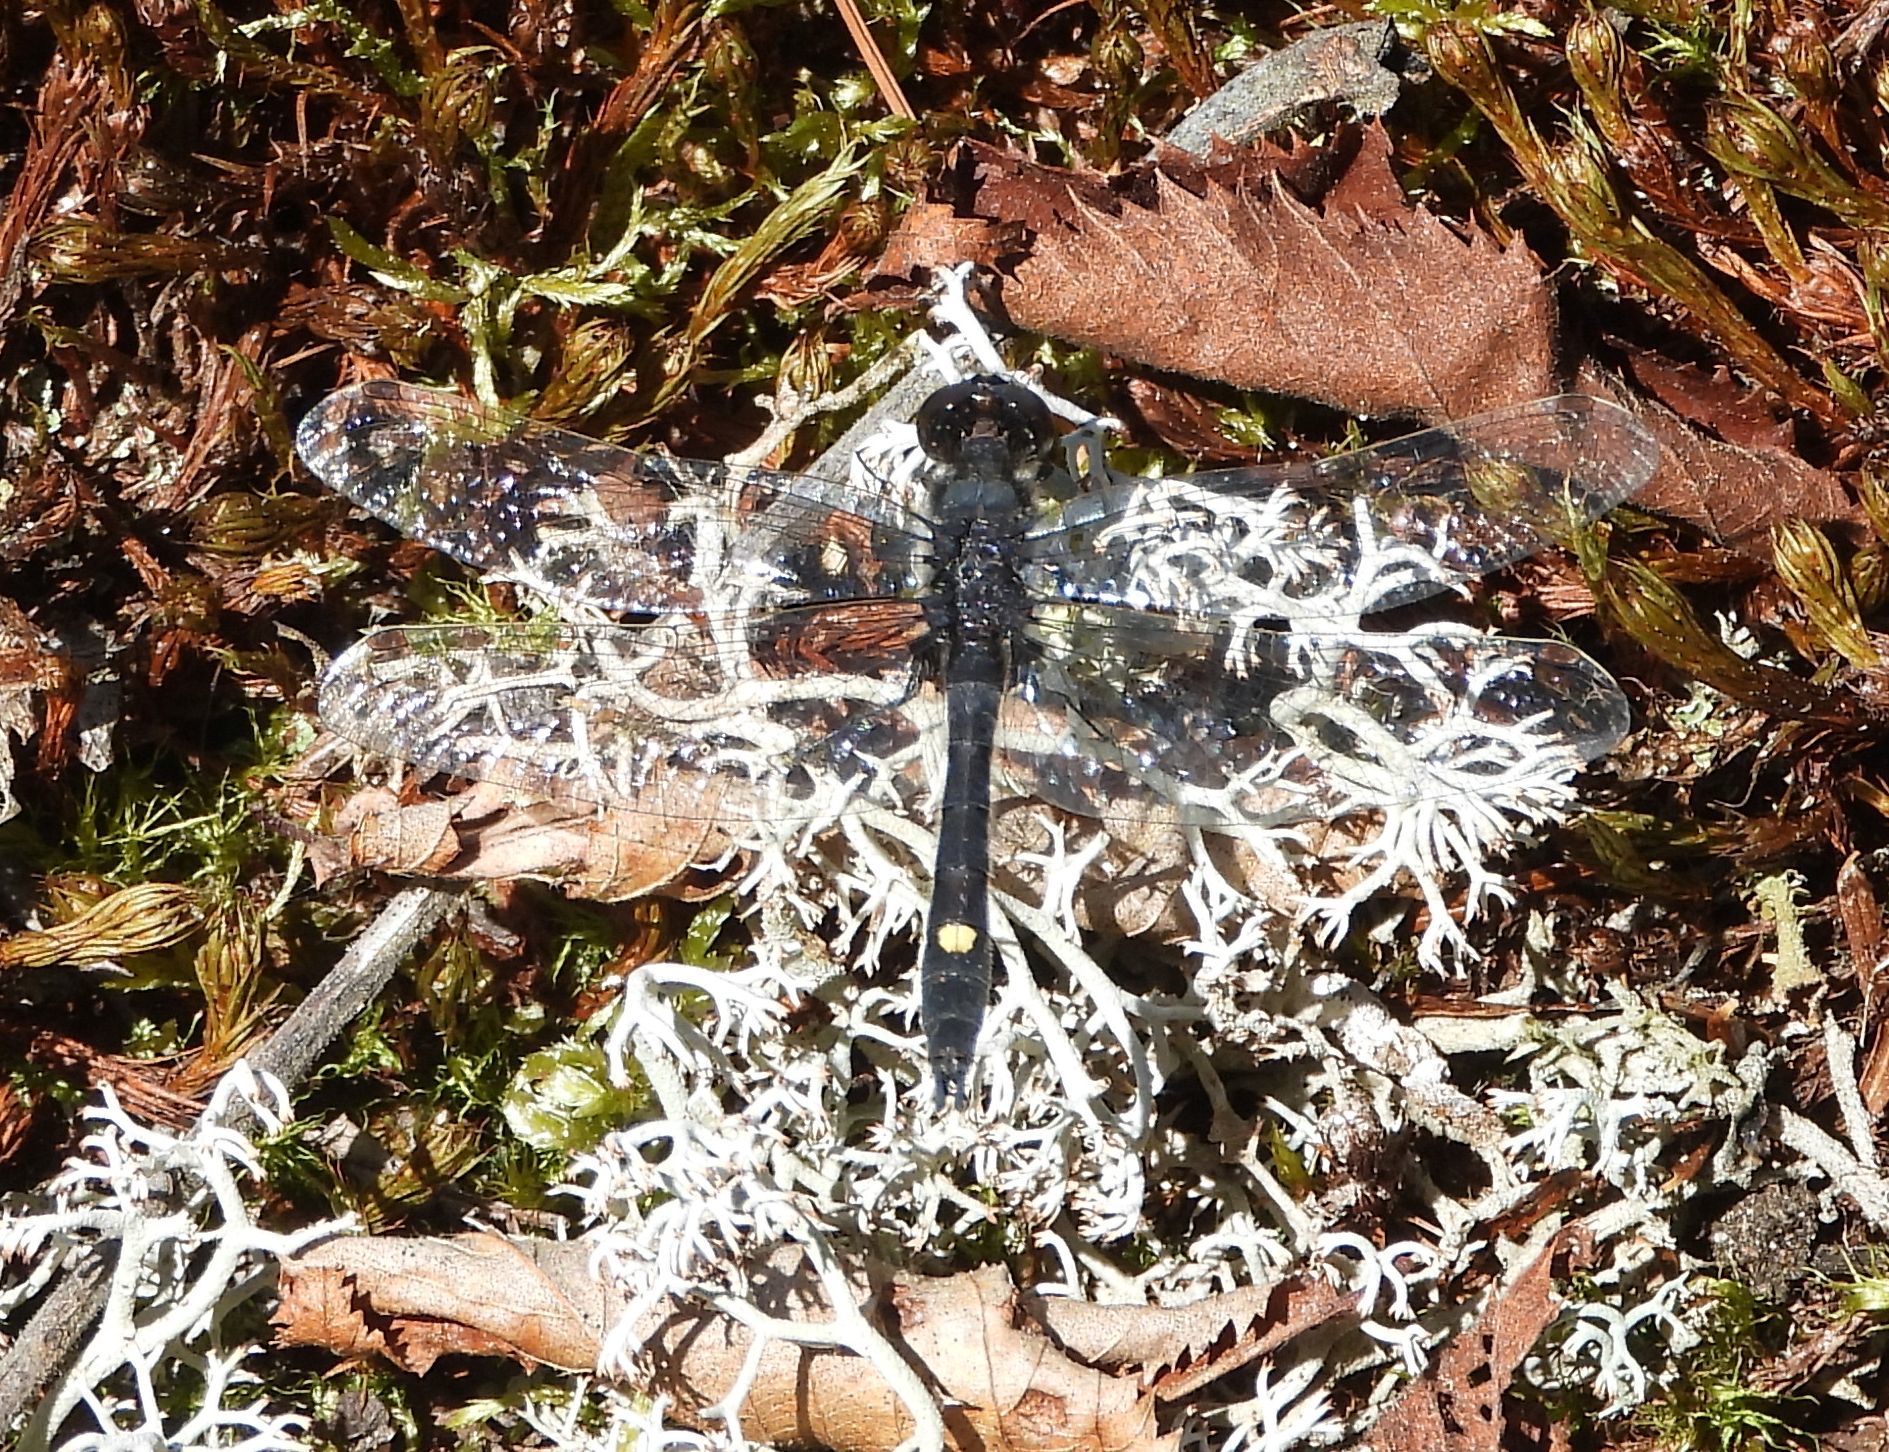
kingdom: Animalia
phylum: Arthropoda
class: Insecta
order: Odonata
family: Libellulidae
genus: Leucorrhinia
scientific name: Leucorrhinia intacta
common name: Dot-tailed whiteface
